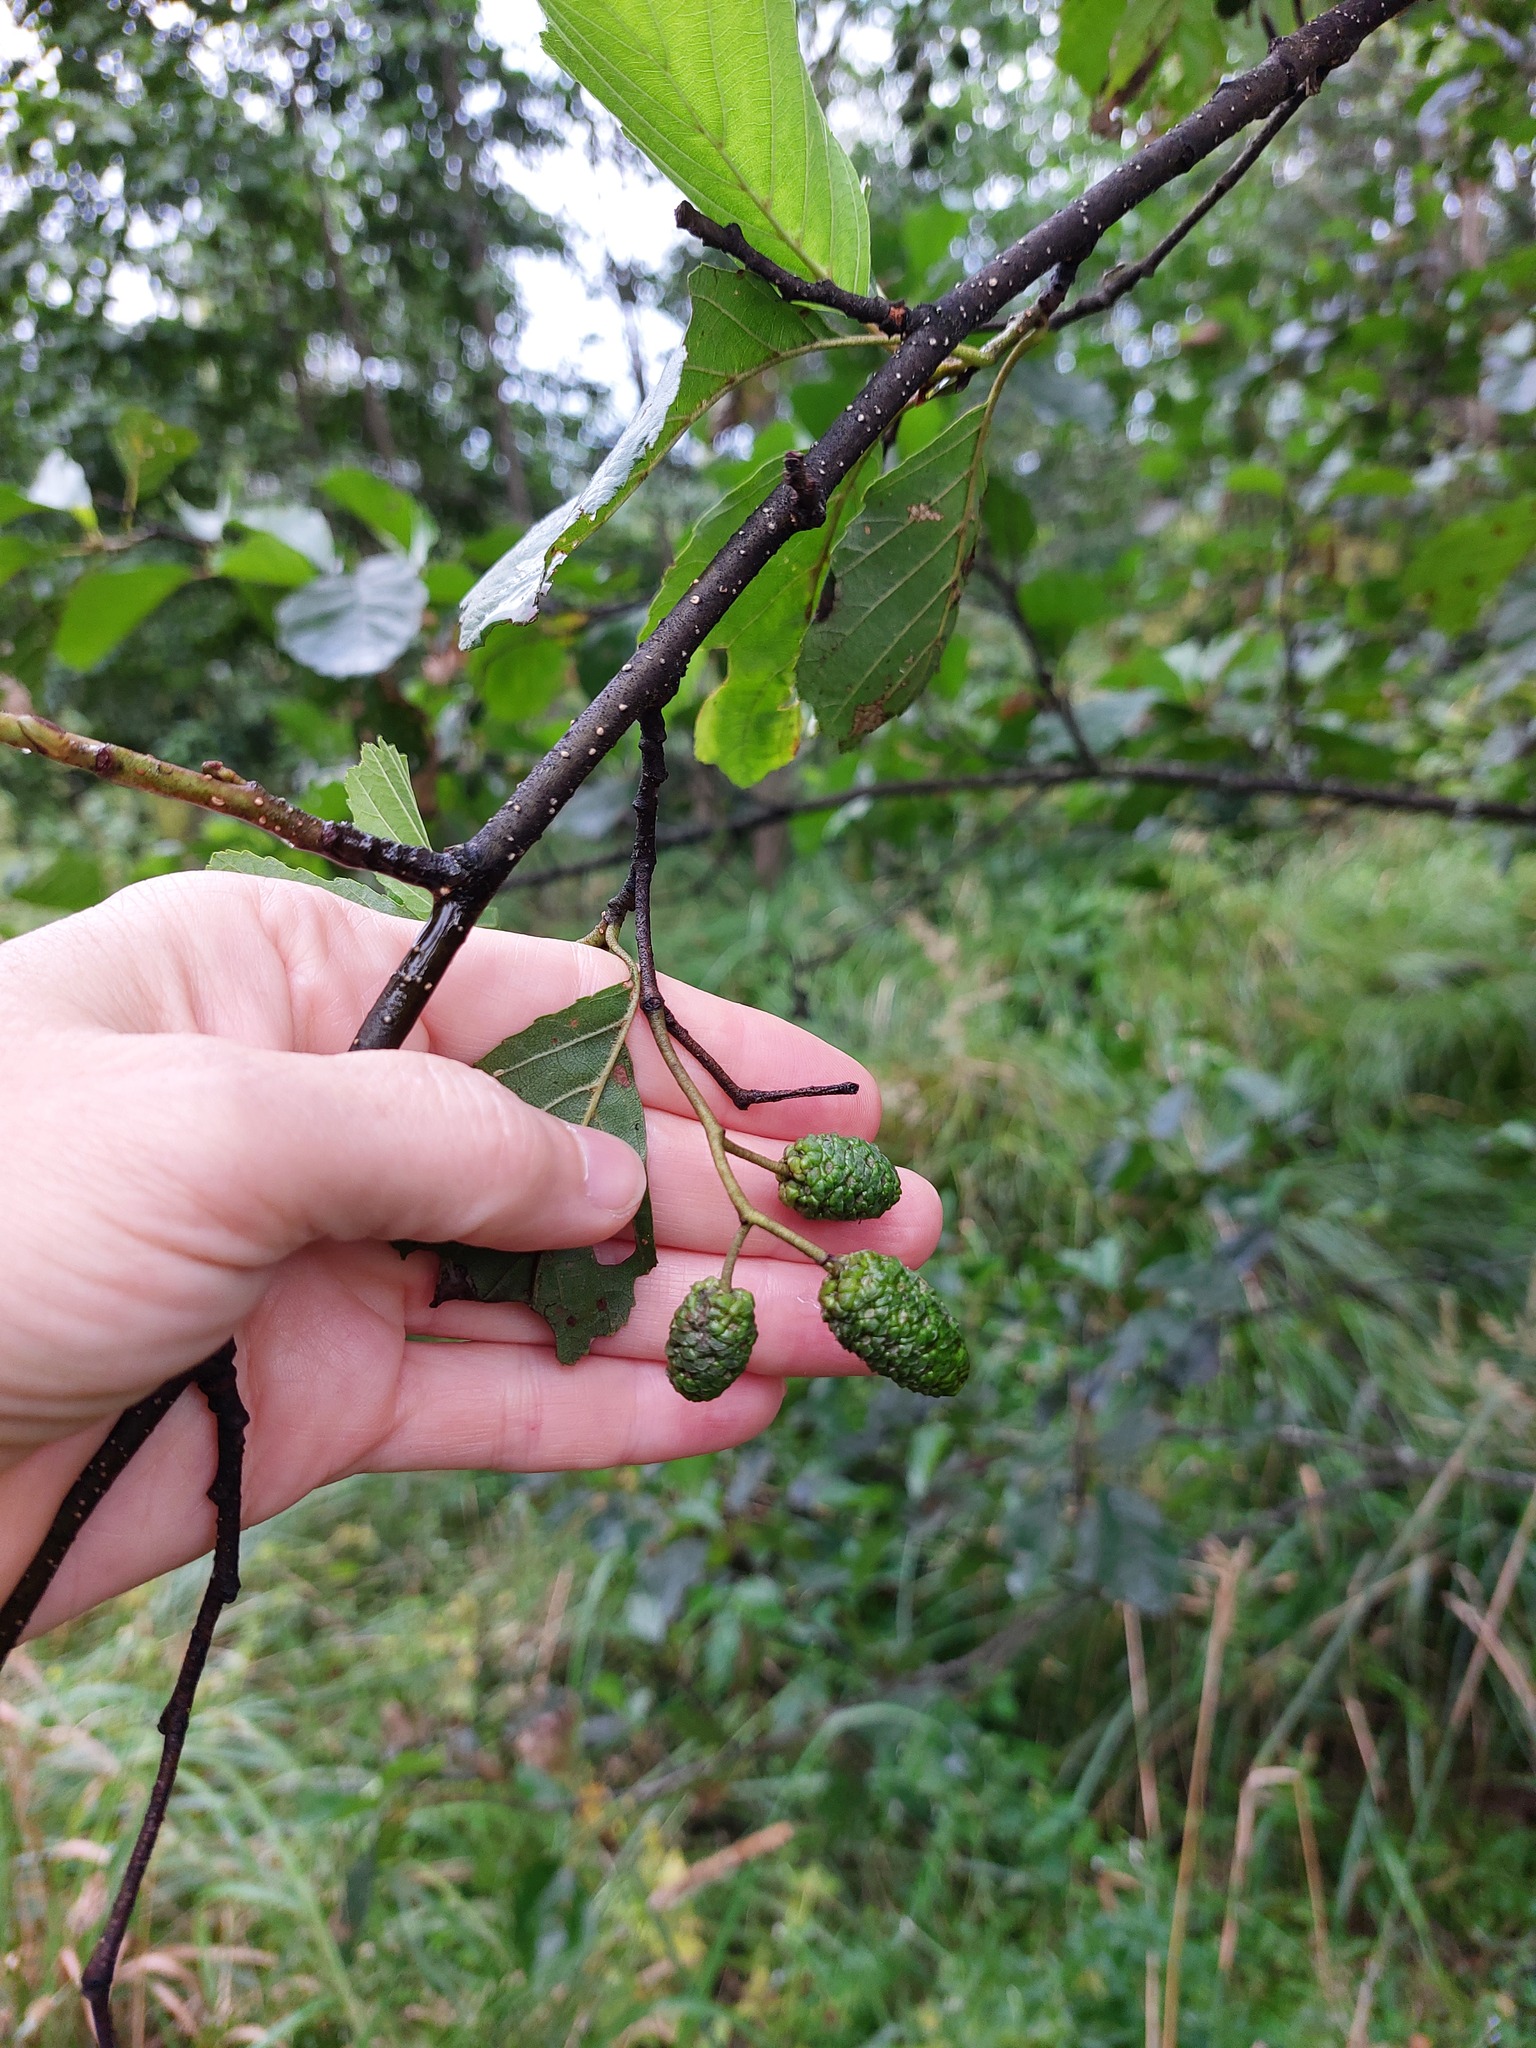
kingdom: Plantae
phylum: Tracheophyta
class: Magnoliopsida
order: Fagales
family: Betulaceae
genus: Alnus
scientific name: Alnus glutinosa
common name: Black alder
